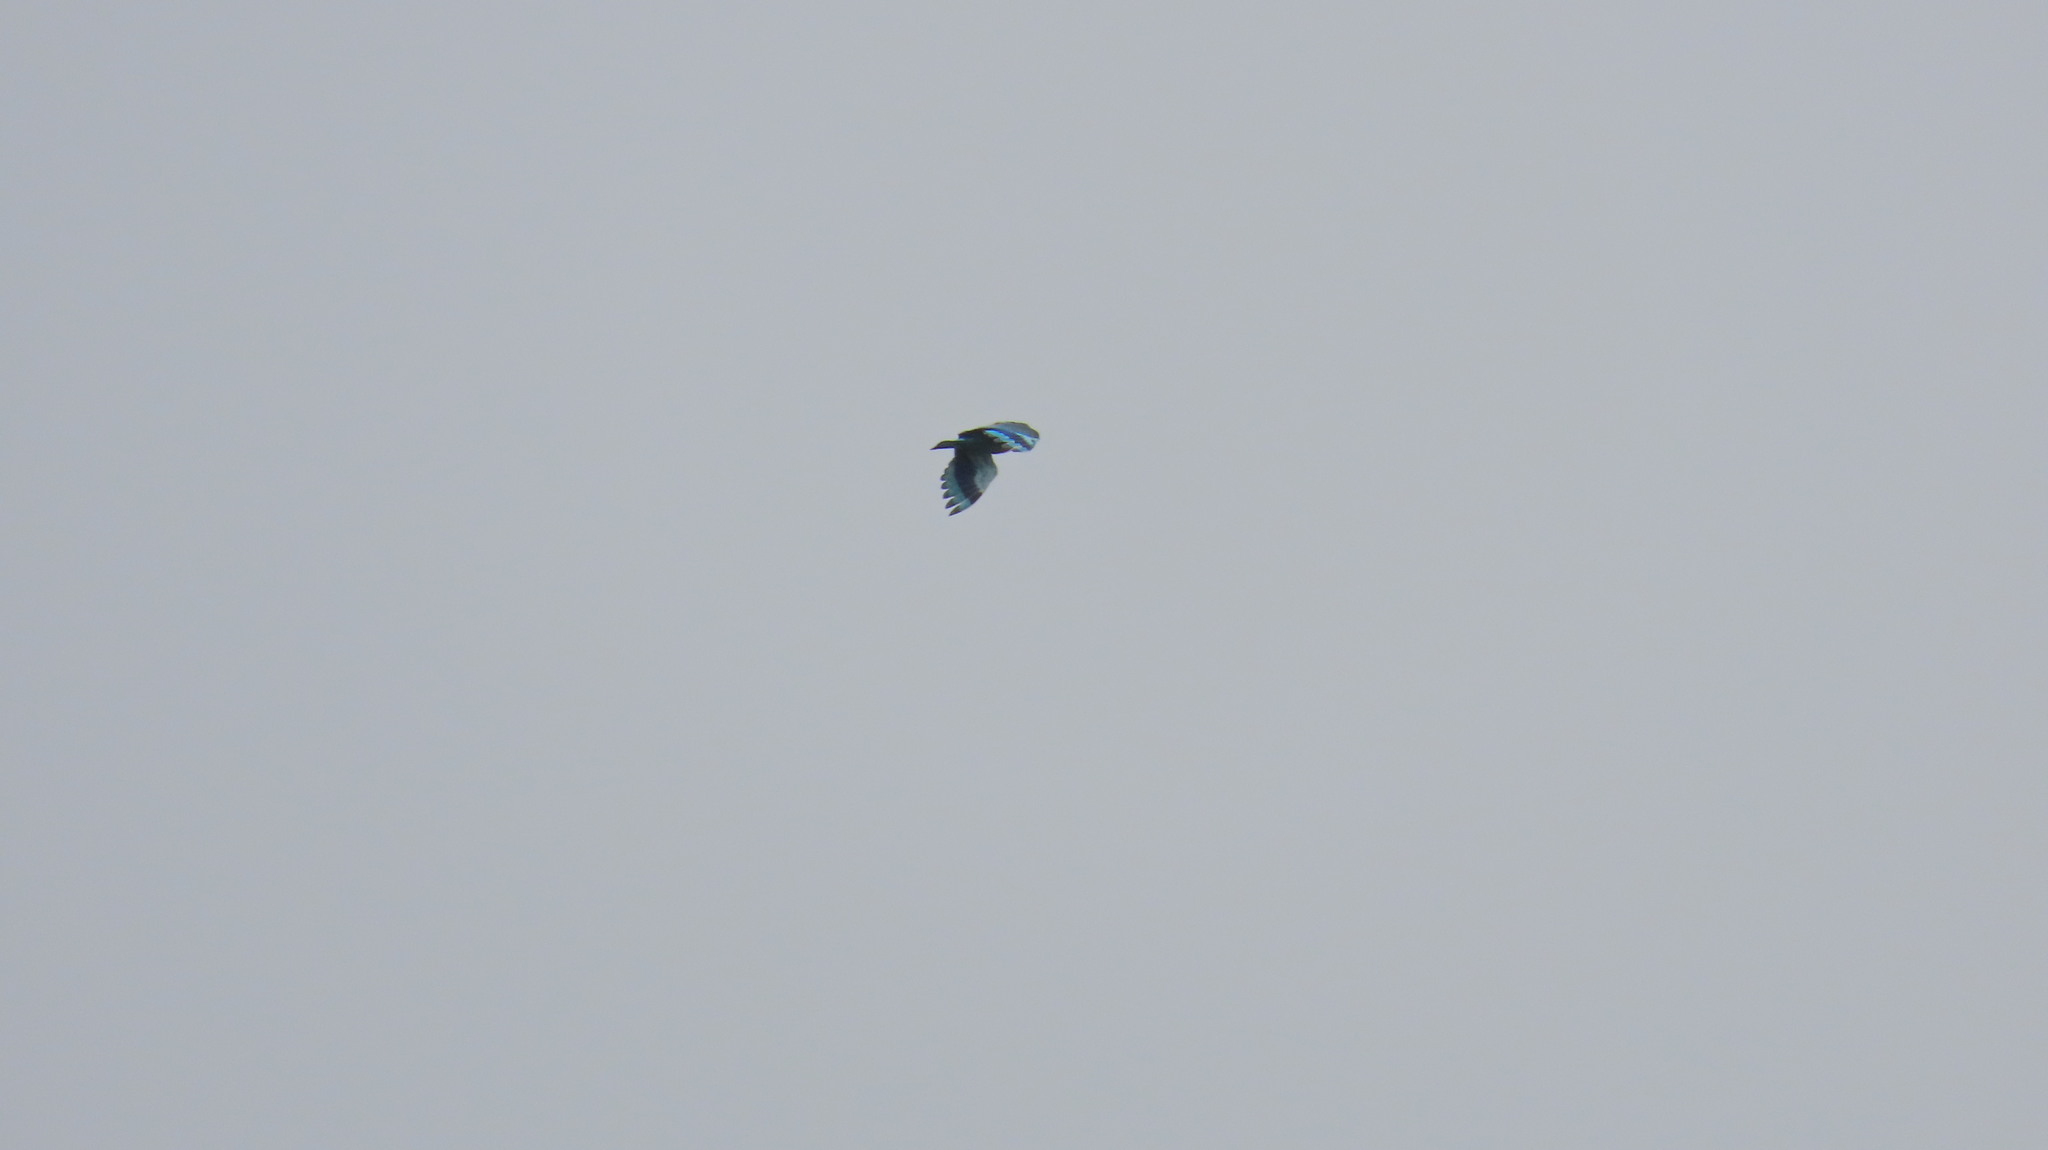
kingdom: Animalia
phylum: Chordata
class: Aves
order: Coraciiformes
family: Coraciidae
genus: Coracias
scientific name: Coracias benghalensis
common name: Indian roller
